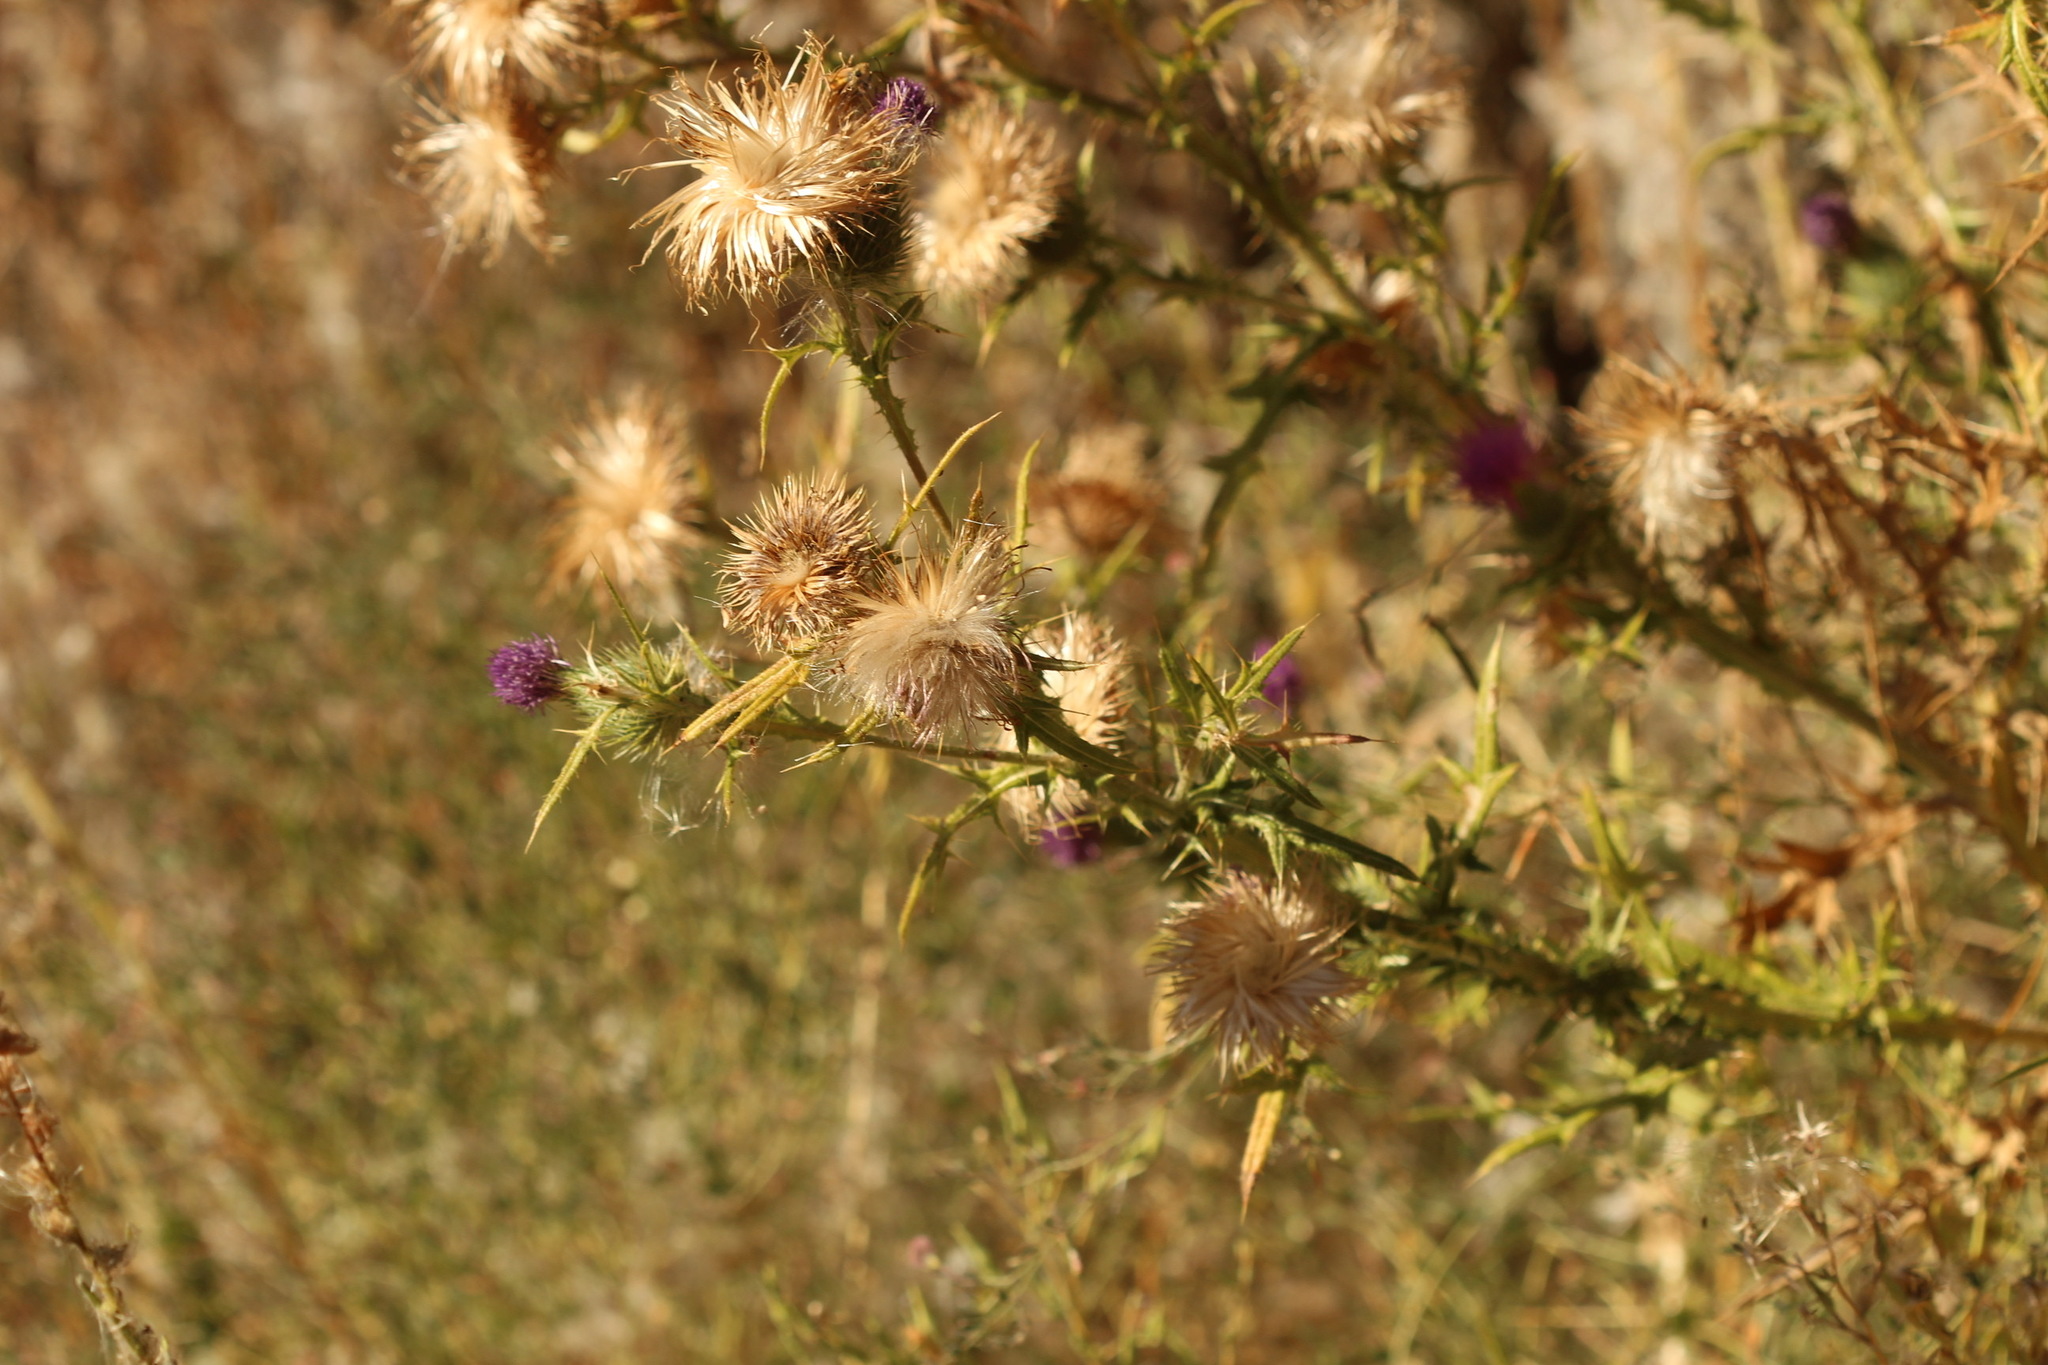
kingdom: Plantae
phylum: Tracheophyta
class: Magnoliopsida
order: Asterales
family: Asteraceae
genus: Cirsium
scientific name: Cirsium vulgare
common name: Bull thistle
